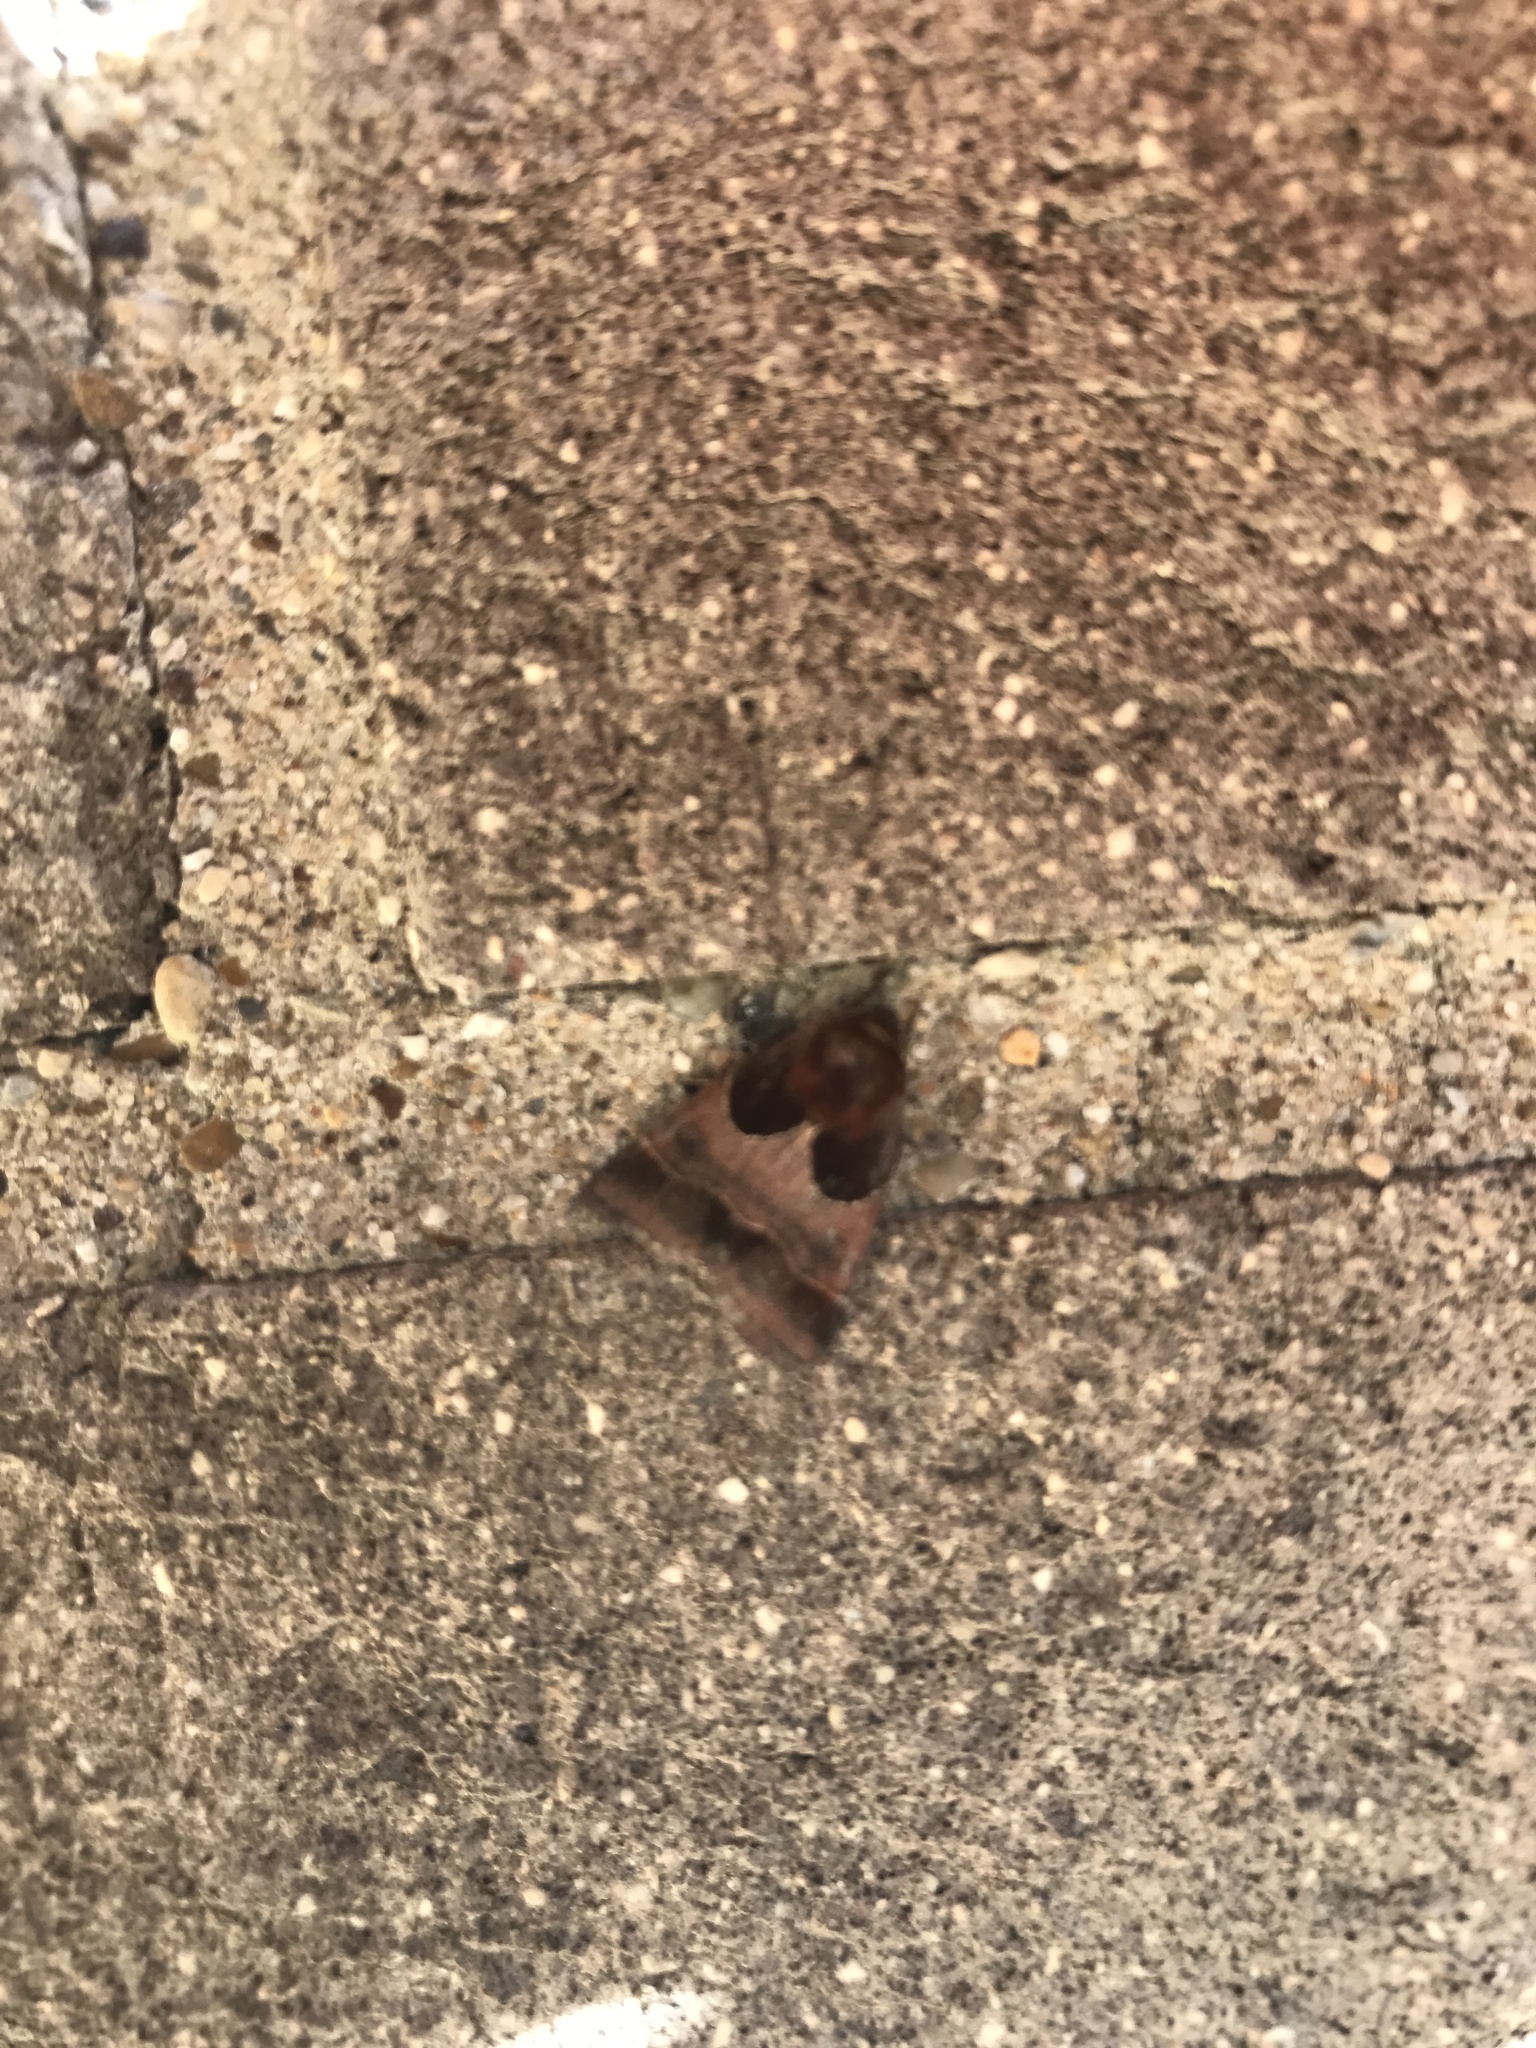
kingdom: Animalia
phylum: Arthropoda
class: Insecta
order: Lepidoptera
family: Noctuidae
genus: Schinia
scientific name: Schinia arcigera
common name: Arcigera flower moth
